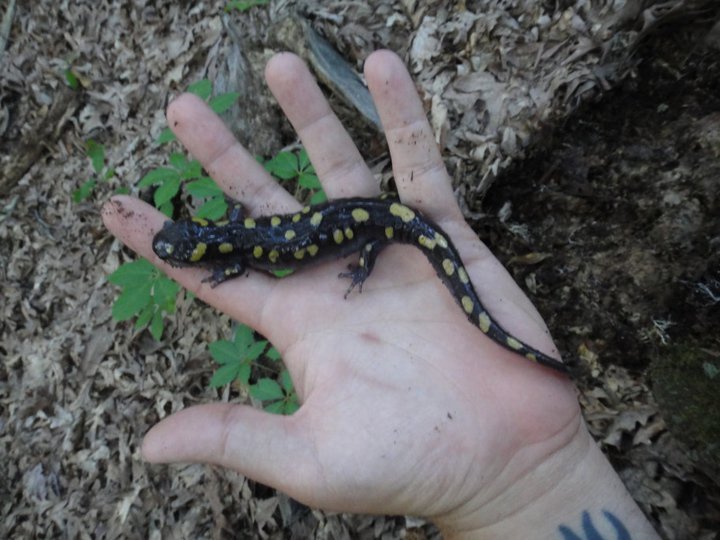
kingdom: Animalia
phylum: Chordata
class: Amphibia
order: Caudata
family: Ambystomatidae
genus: Ambystoma
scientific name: Ambystoma maculatum
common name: Spotted salamander
